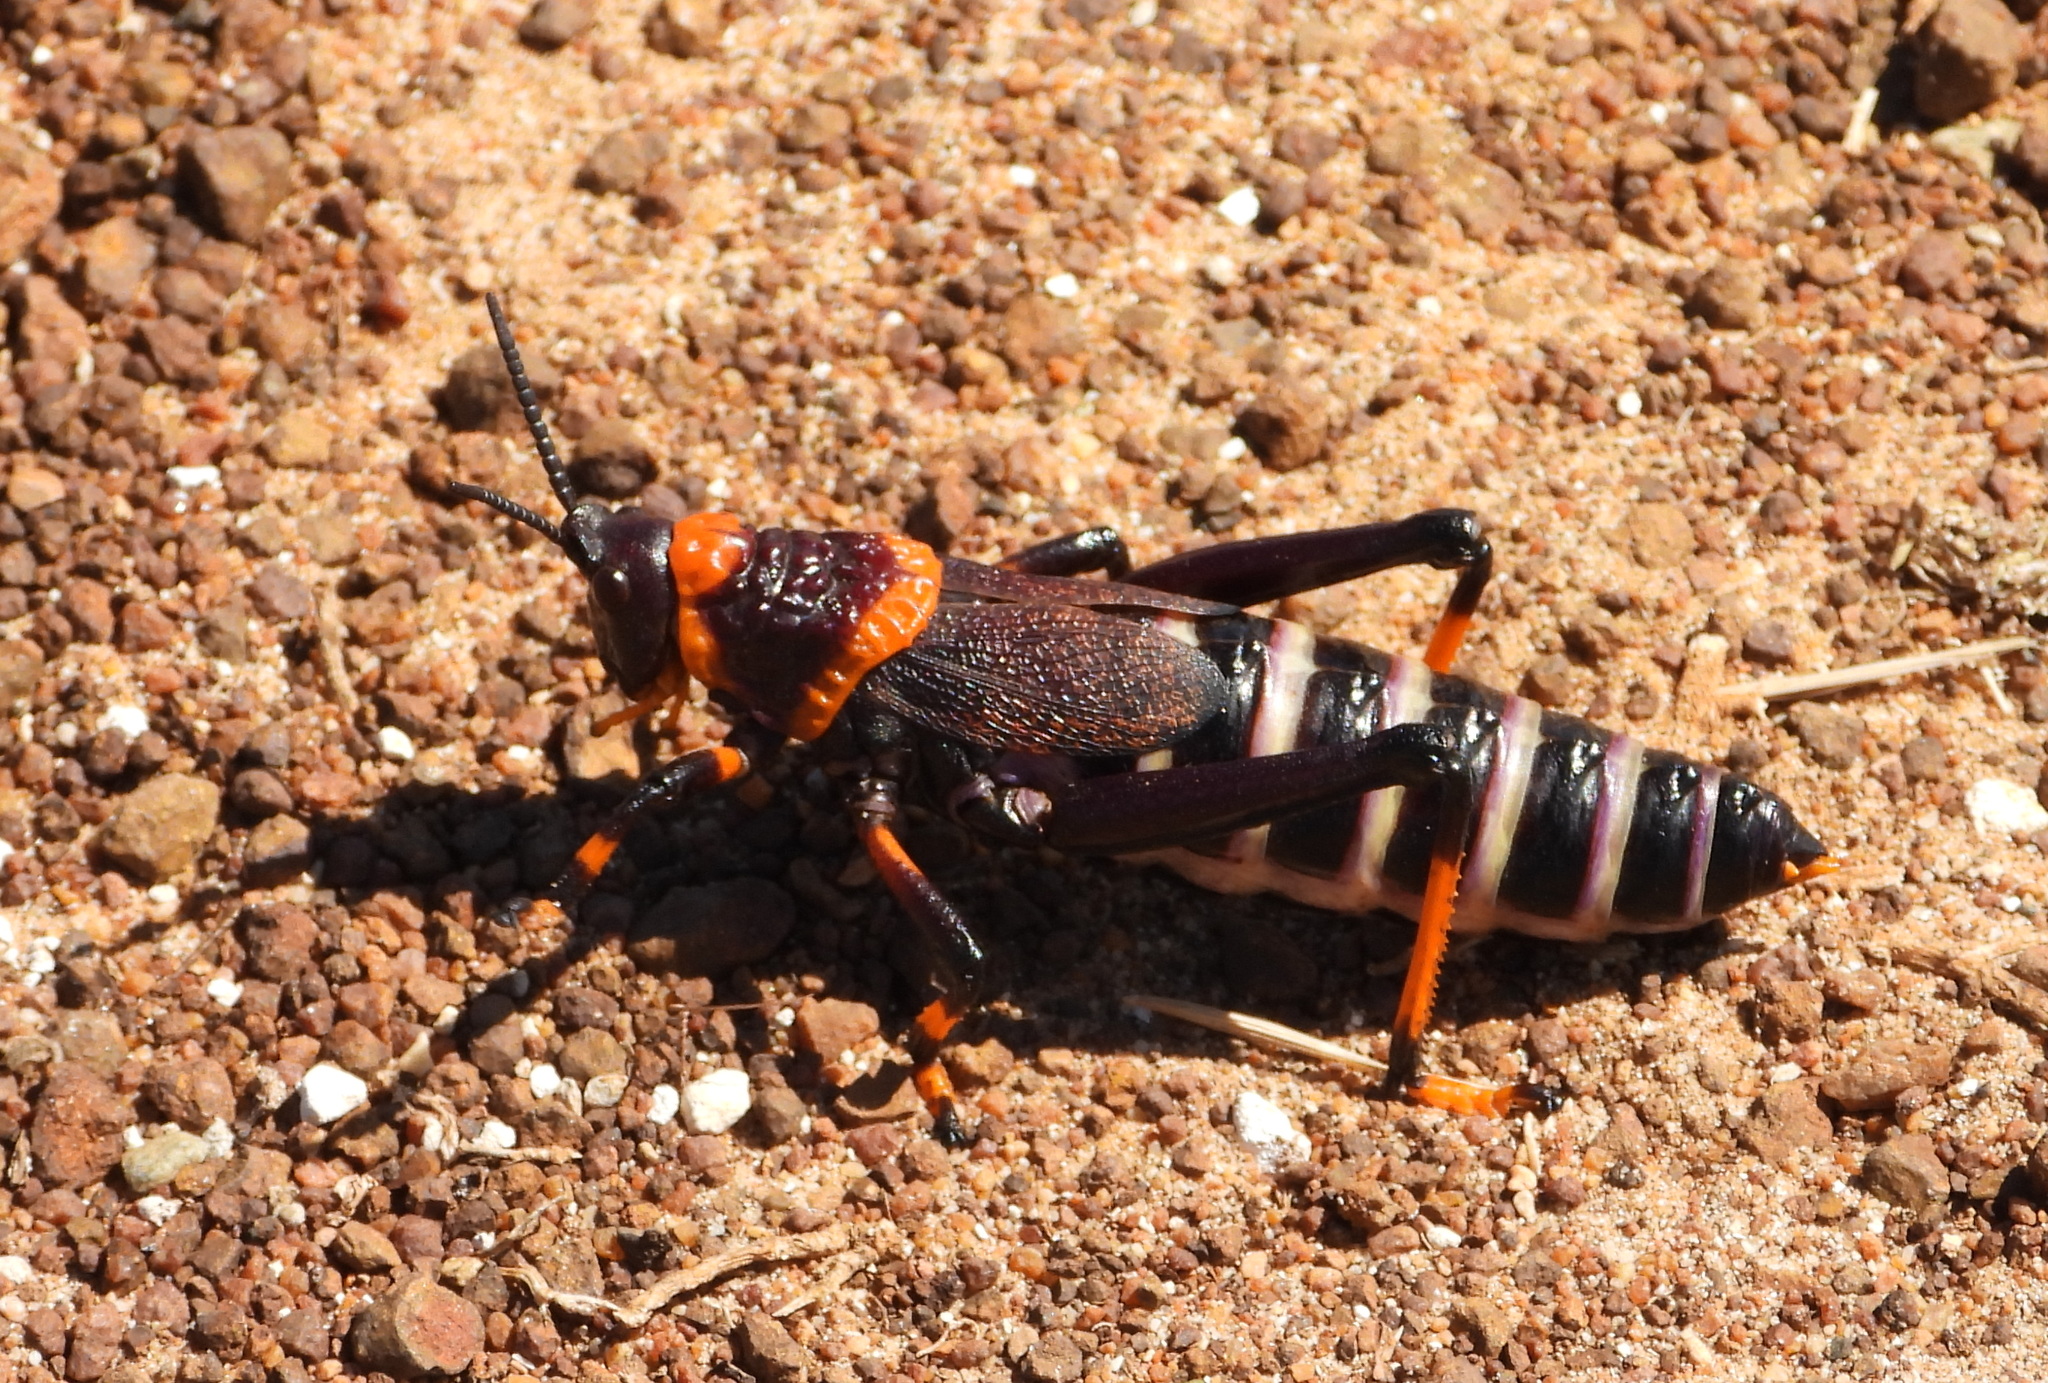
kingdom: Animalia
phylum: Arthropoda
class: Insecta
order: Orthoptera
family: Pyrgomorphidae
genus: Dictyophorus
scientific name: Dictyophorus spumans
